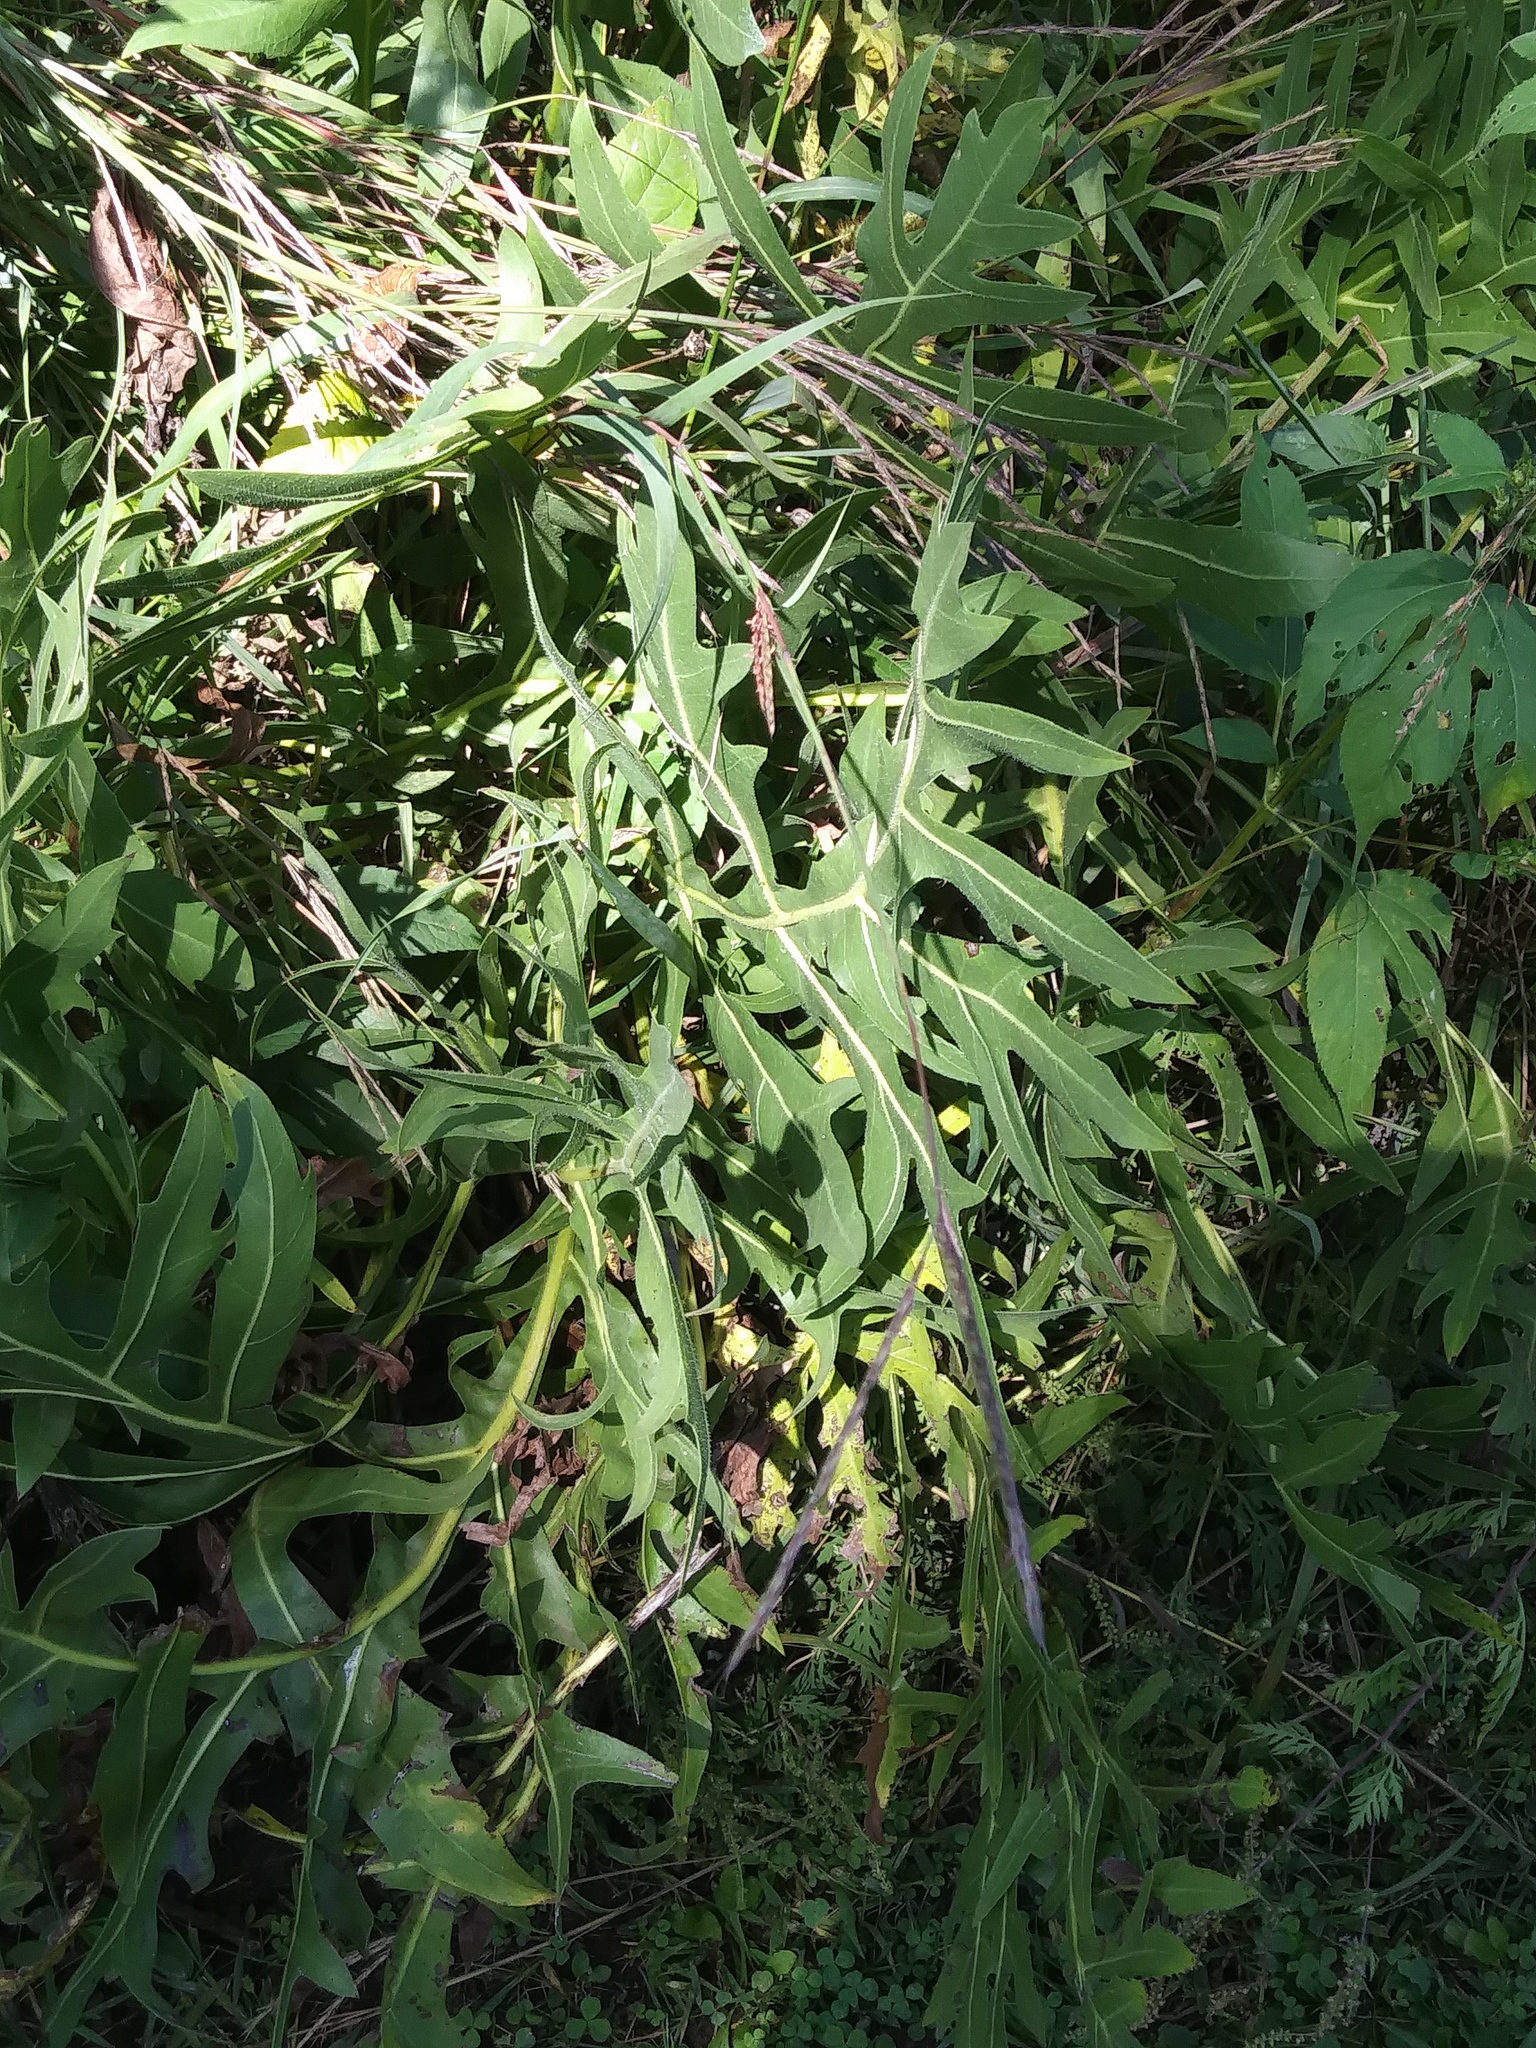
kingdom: Plantae
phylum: Tracheophyta
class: Magnoliopsida
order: Asterales
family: Asteraceae
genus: Silphium
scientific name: Silphium laciniatum
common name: Polarplant
